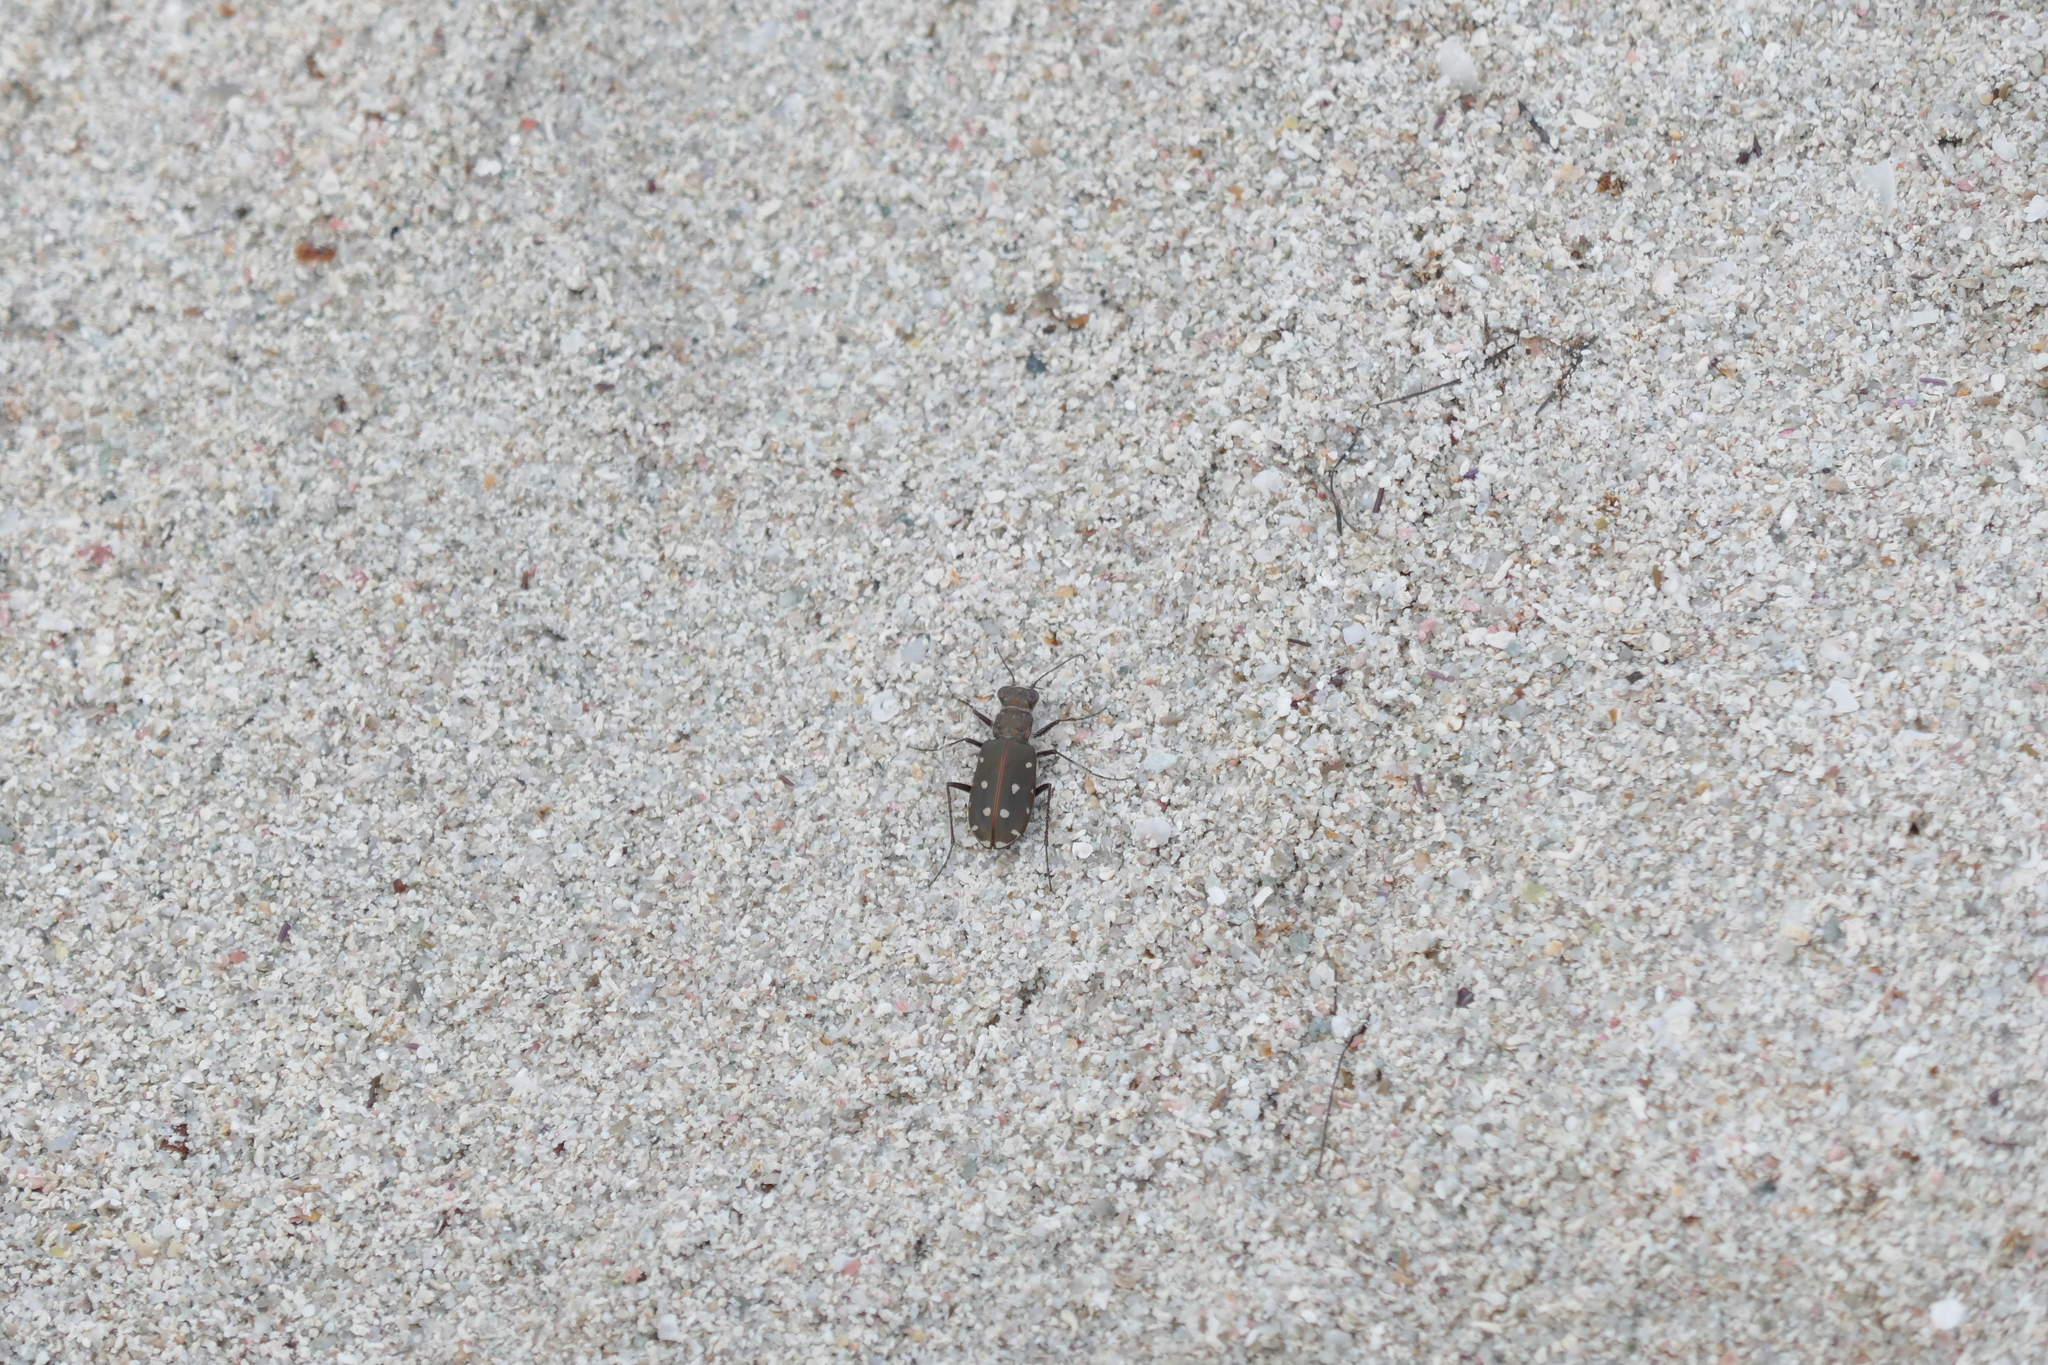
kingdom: Animalia
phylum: Arthropoda
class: Insecta
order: Coleoptera
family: Carabidae
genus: Cicindela
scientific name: Cicindela littoralis
